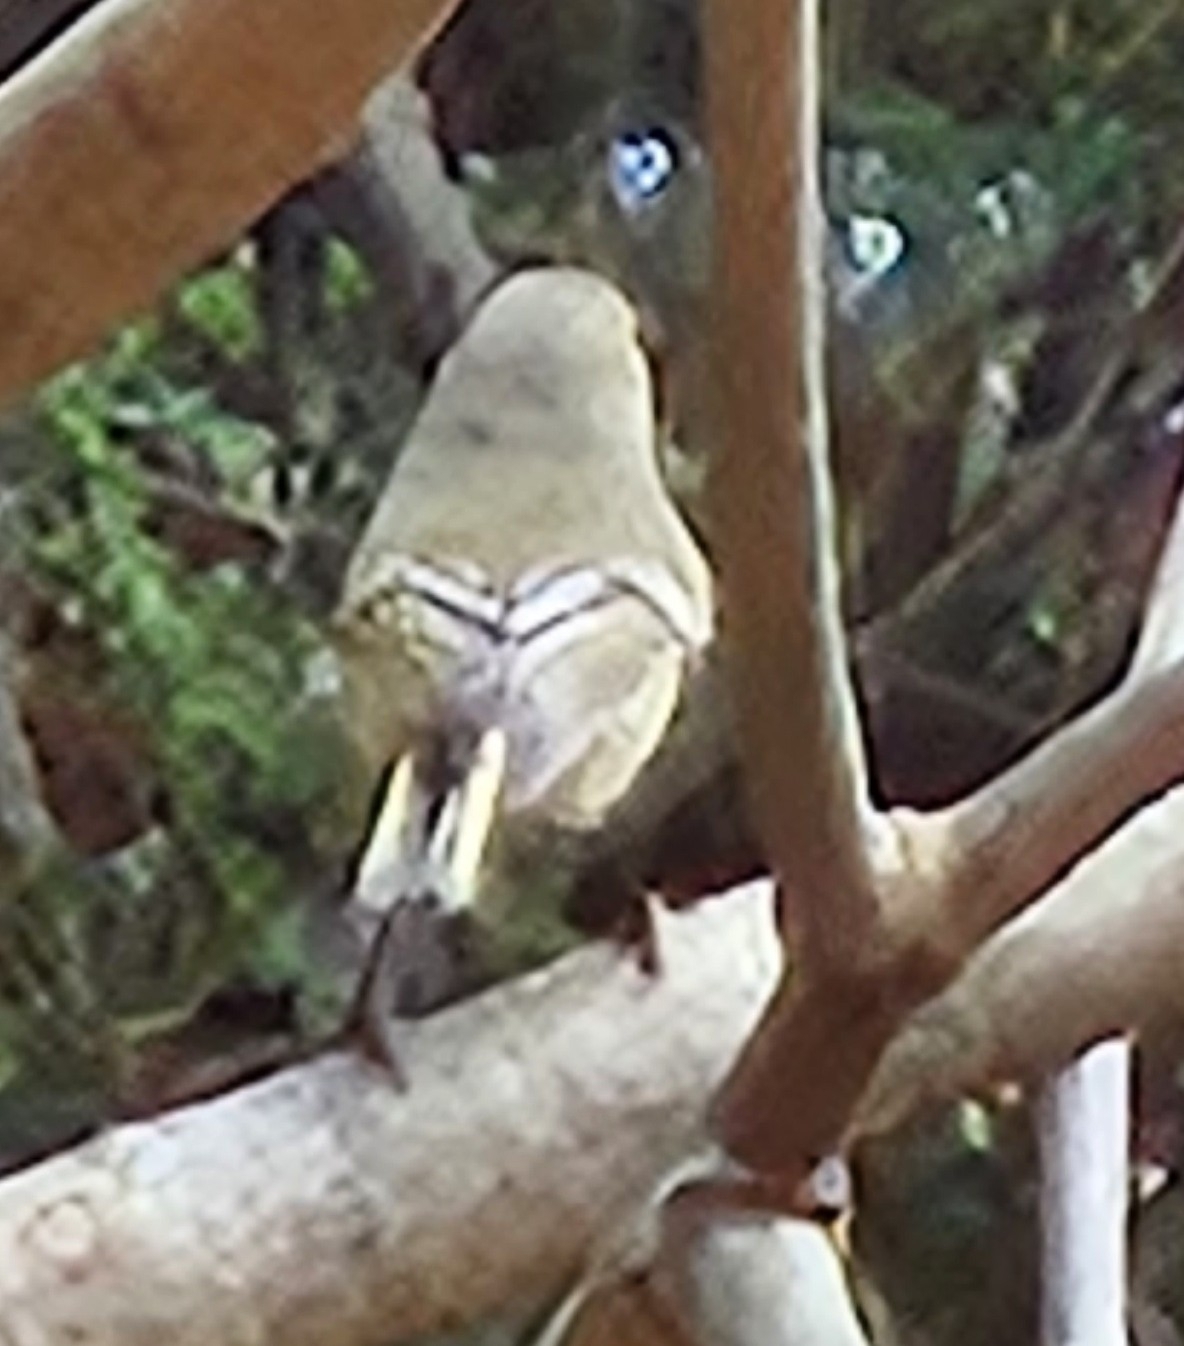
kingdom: Animalia
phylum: Chordata
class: Aves
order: Passeriformes
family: Regulidae
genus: Regulus
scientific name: Regulus calendula
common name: Ruby-crowned kinglet
